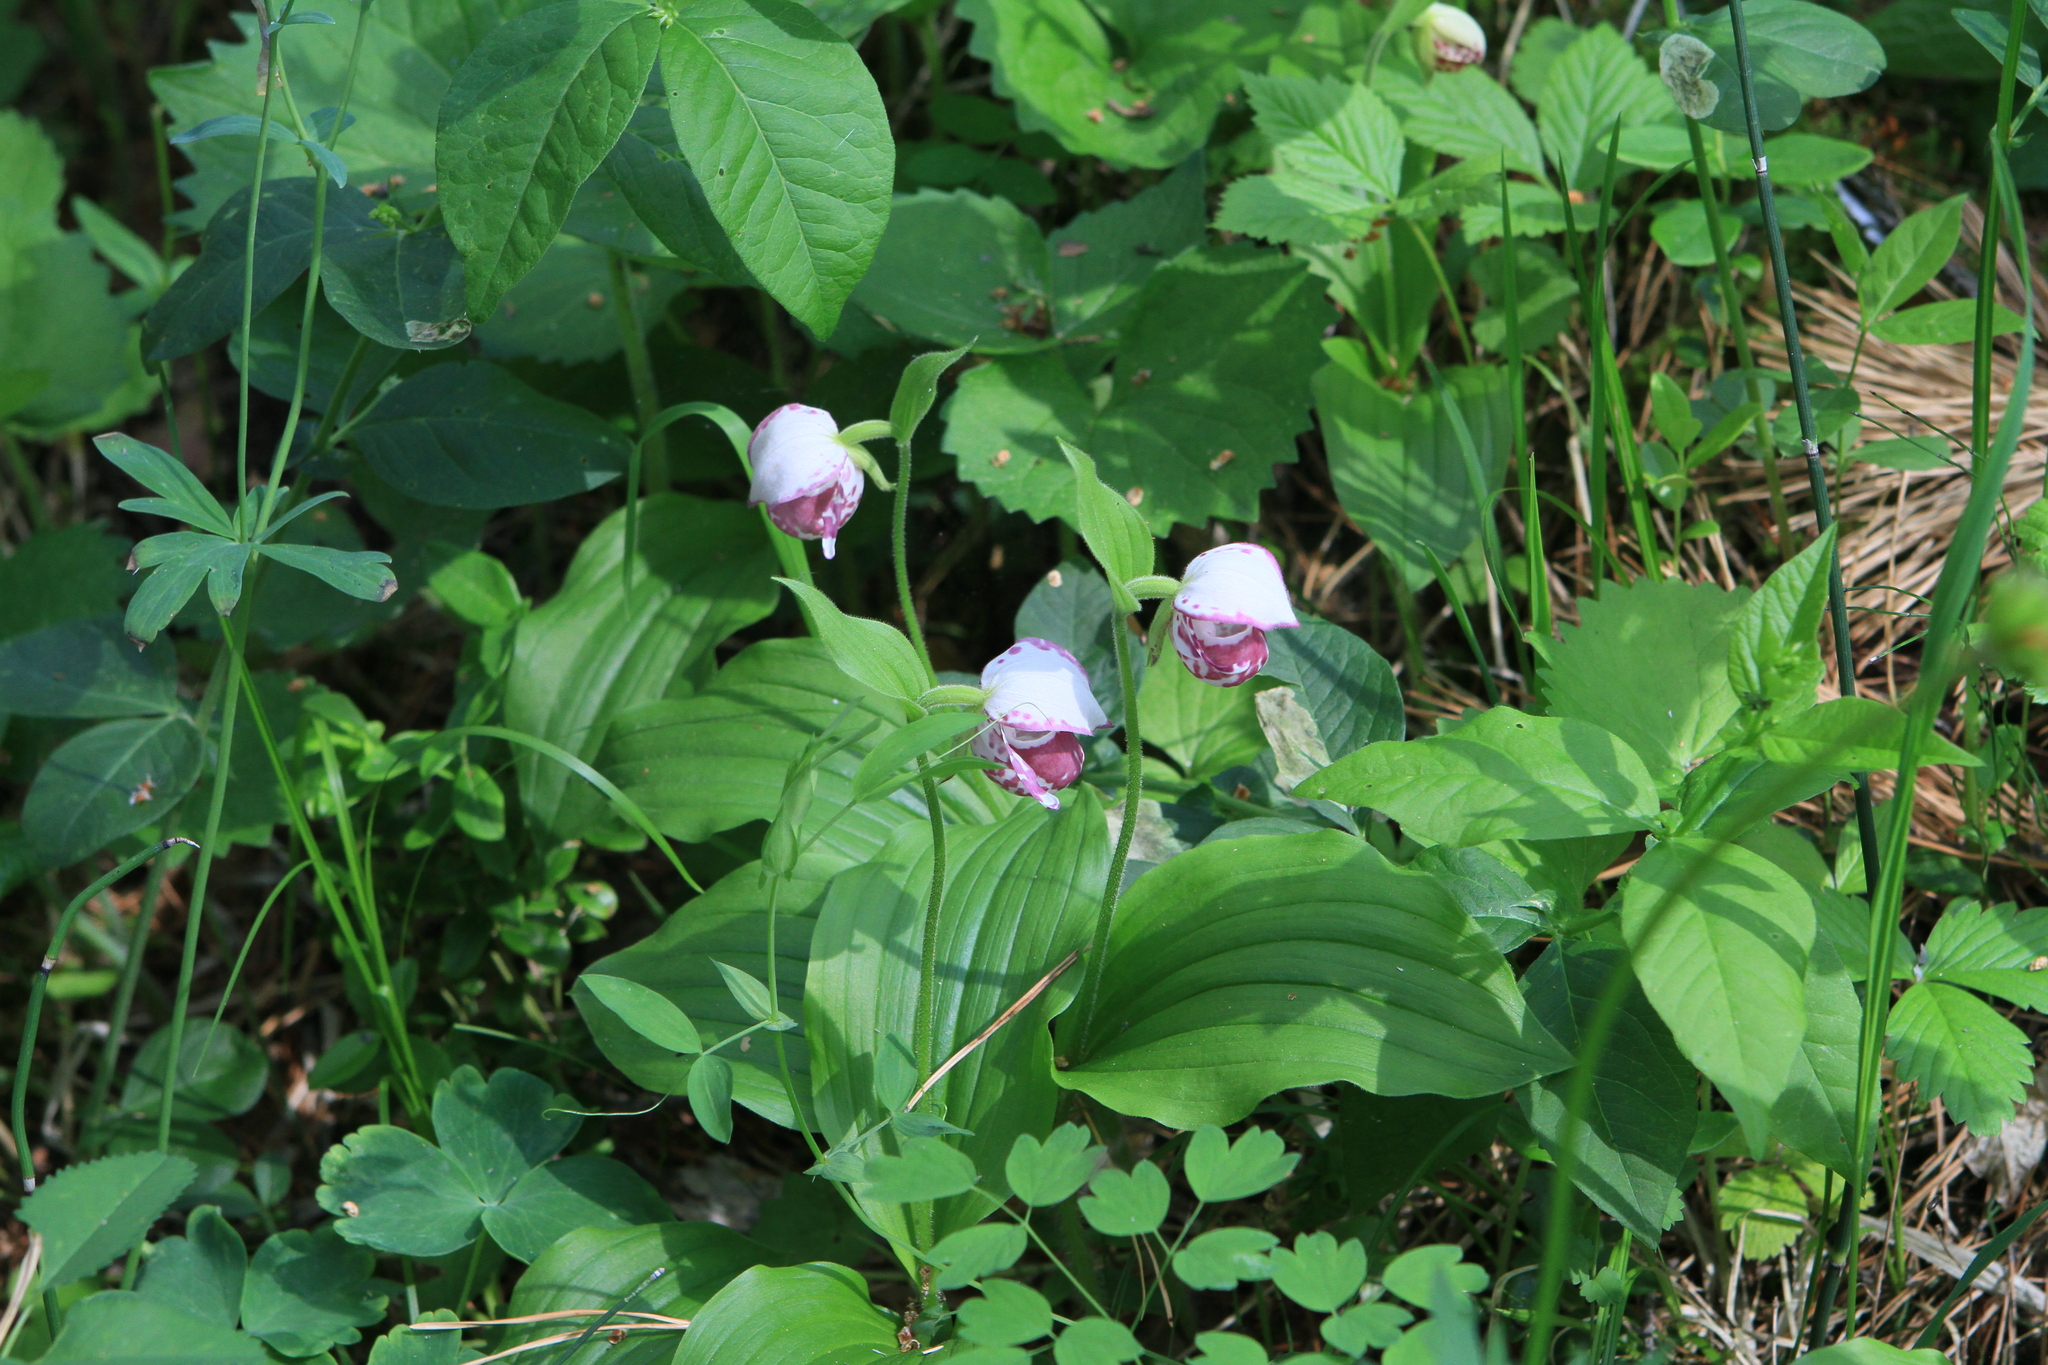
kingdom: Plantae
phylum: Tracheophyta
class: Liliopsida
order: Asparagales
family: Orchidaceae
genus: Cypripedium
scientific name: Cypripedium guttatum
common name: Pink lady slipper
